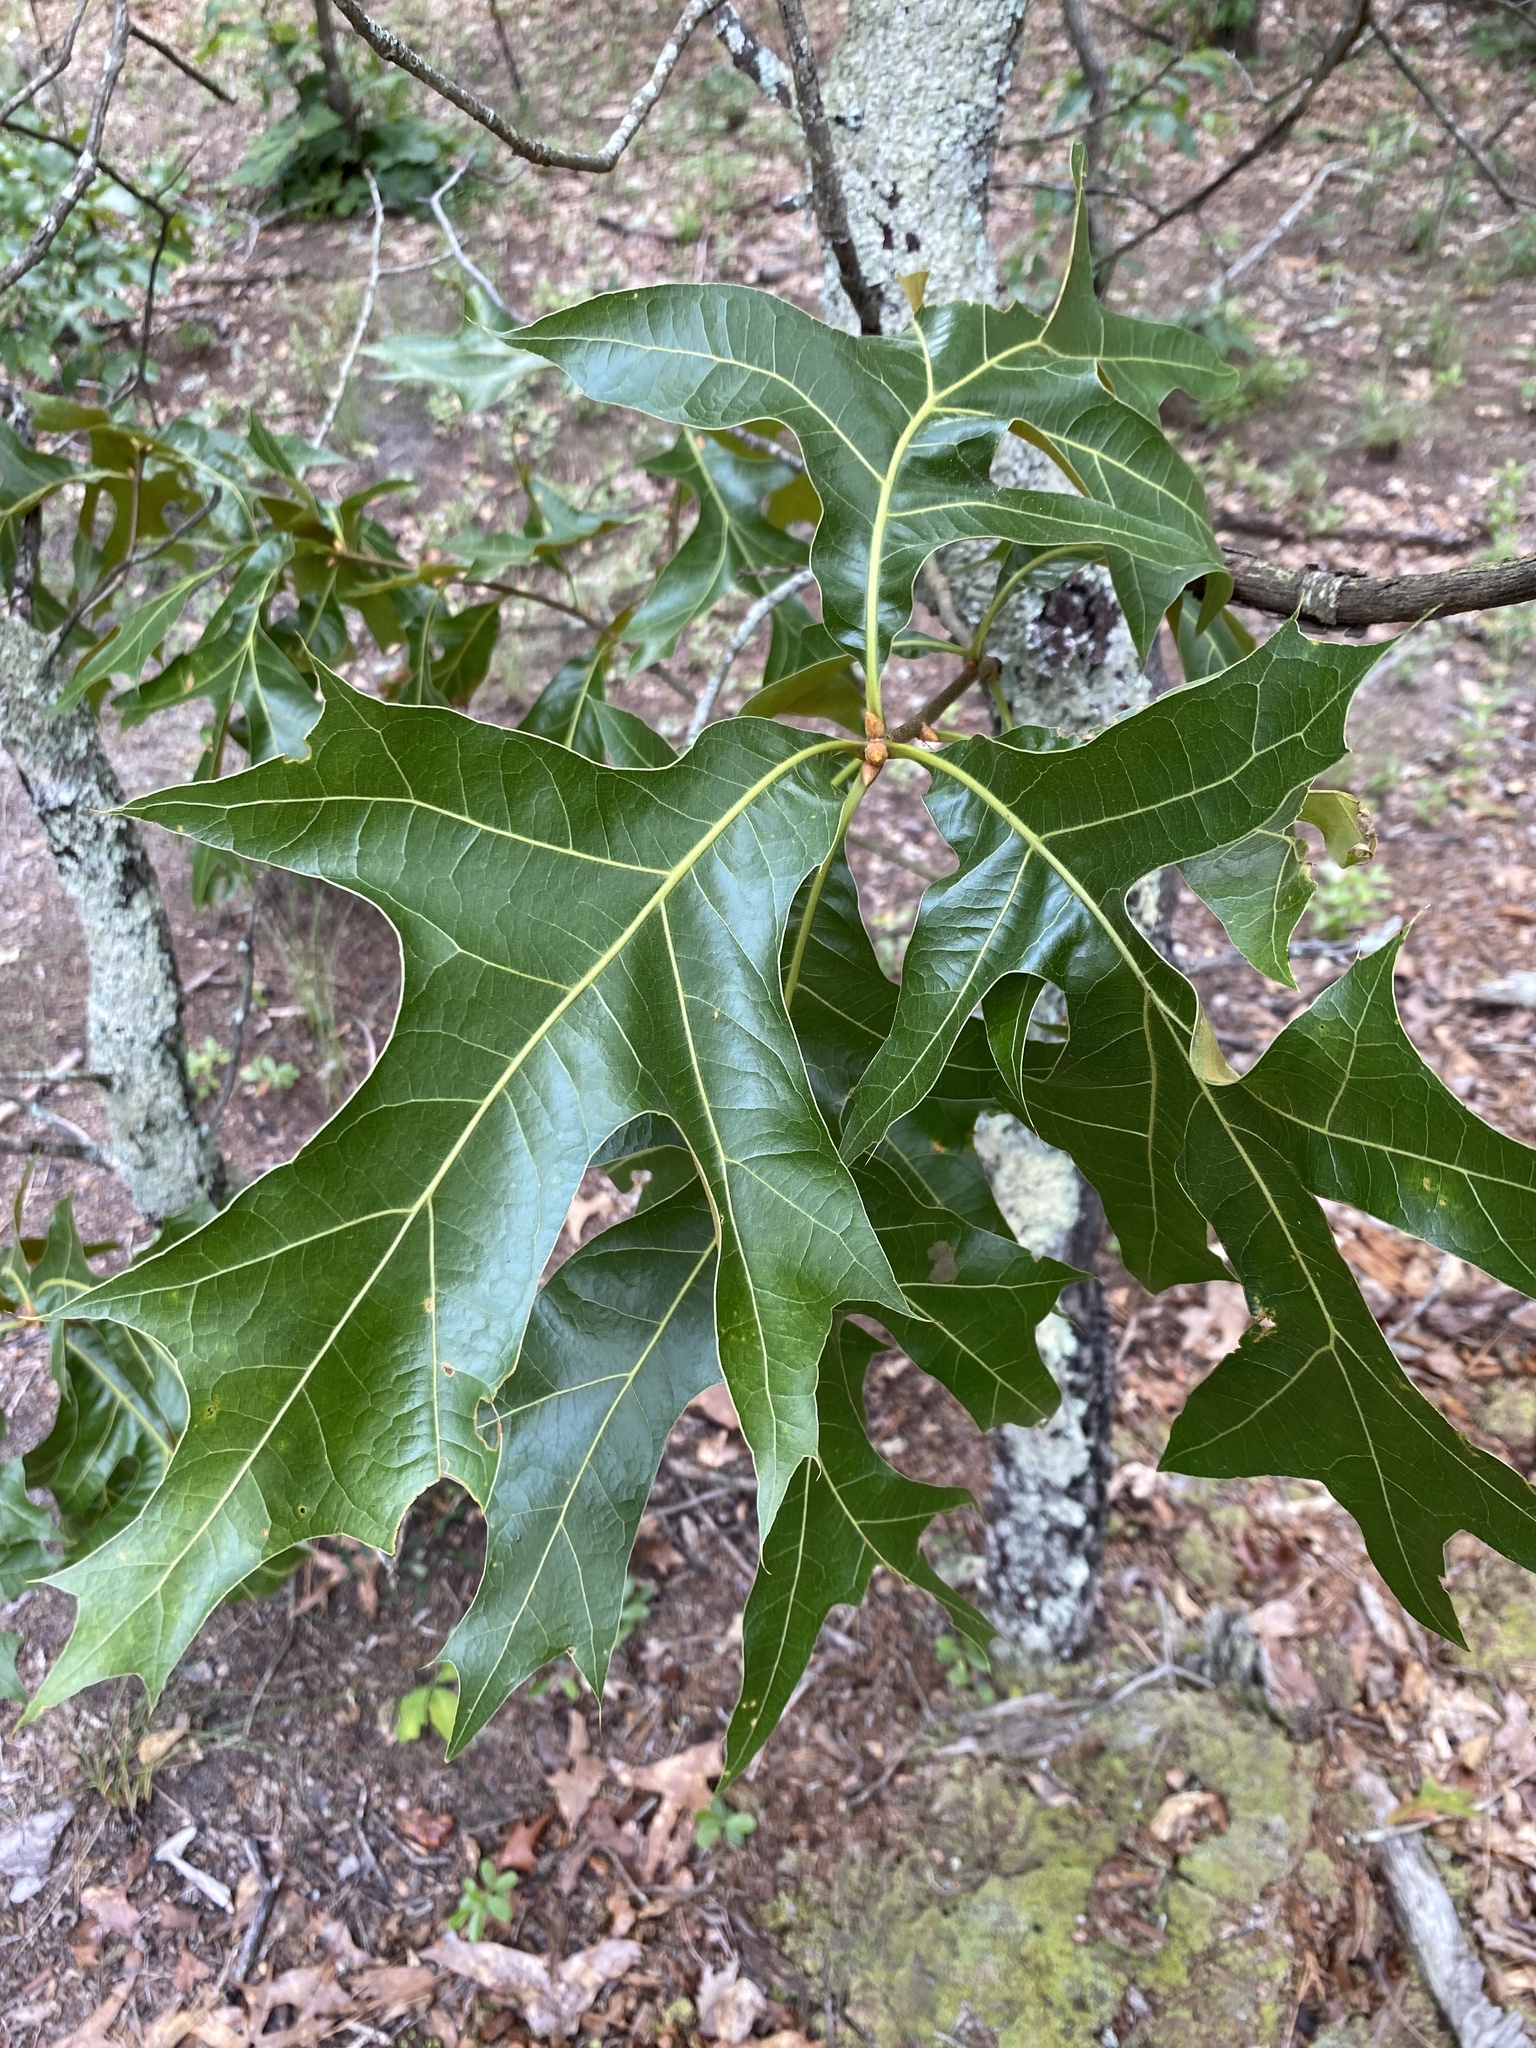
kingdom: Plantae
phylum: Tracheophyta
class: Magnoliopsida
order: Fagales
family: Fagaceae
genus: Quercus
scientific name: Quercus laevis
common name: Turkey oak
